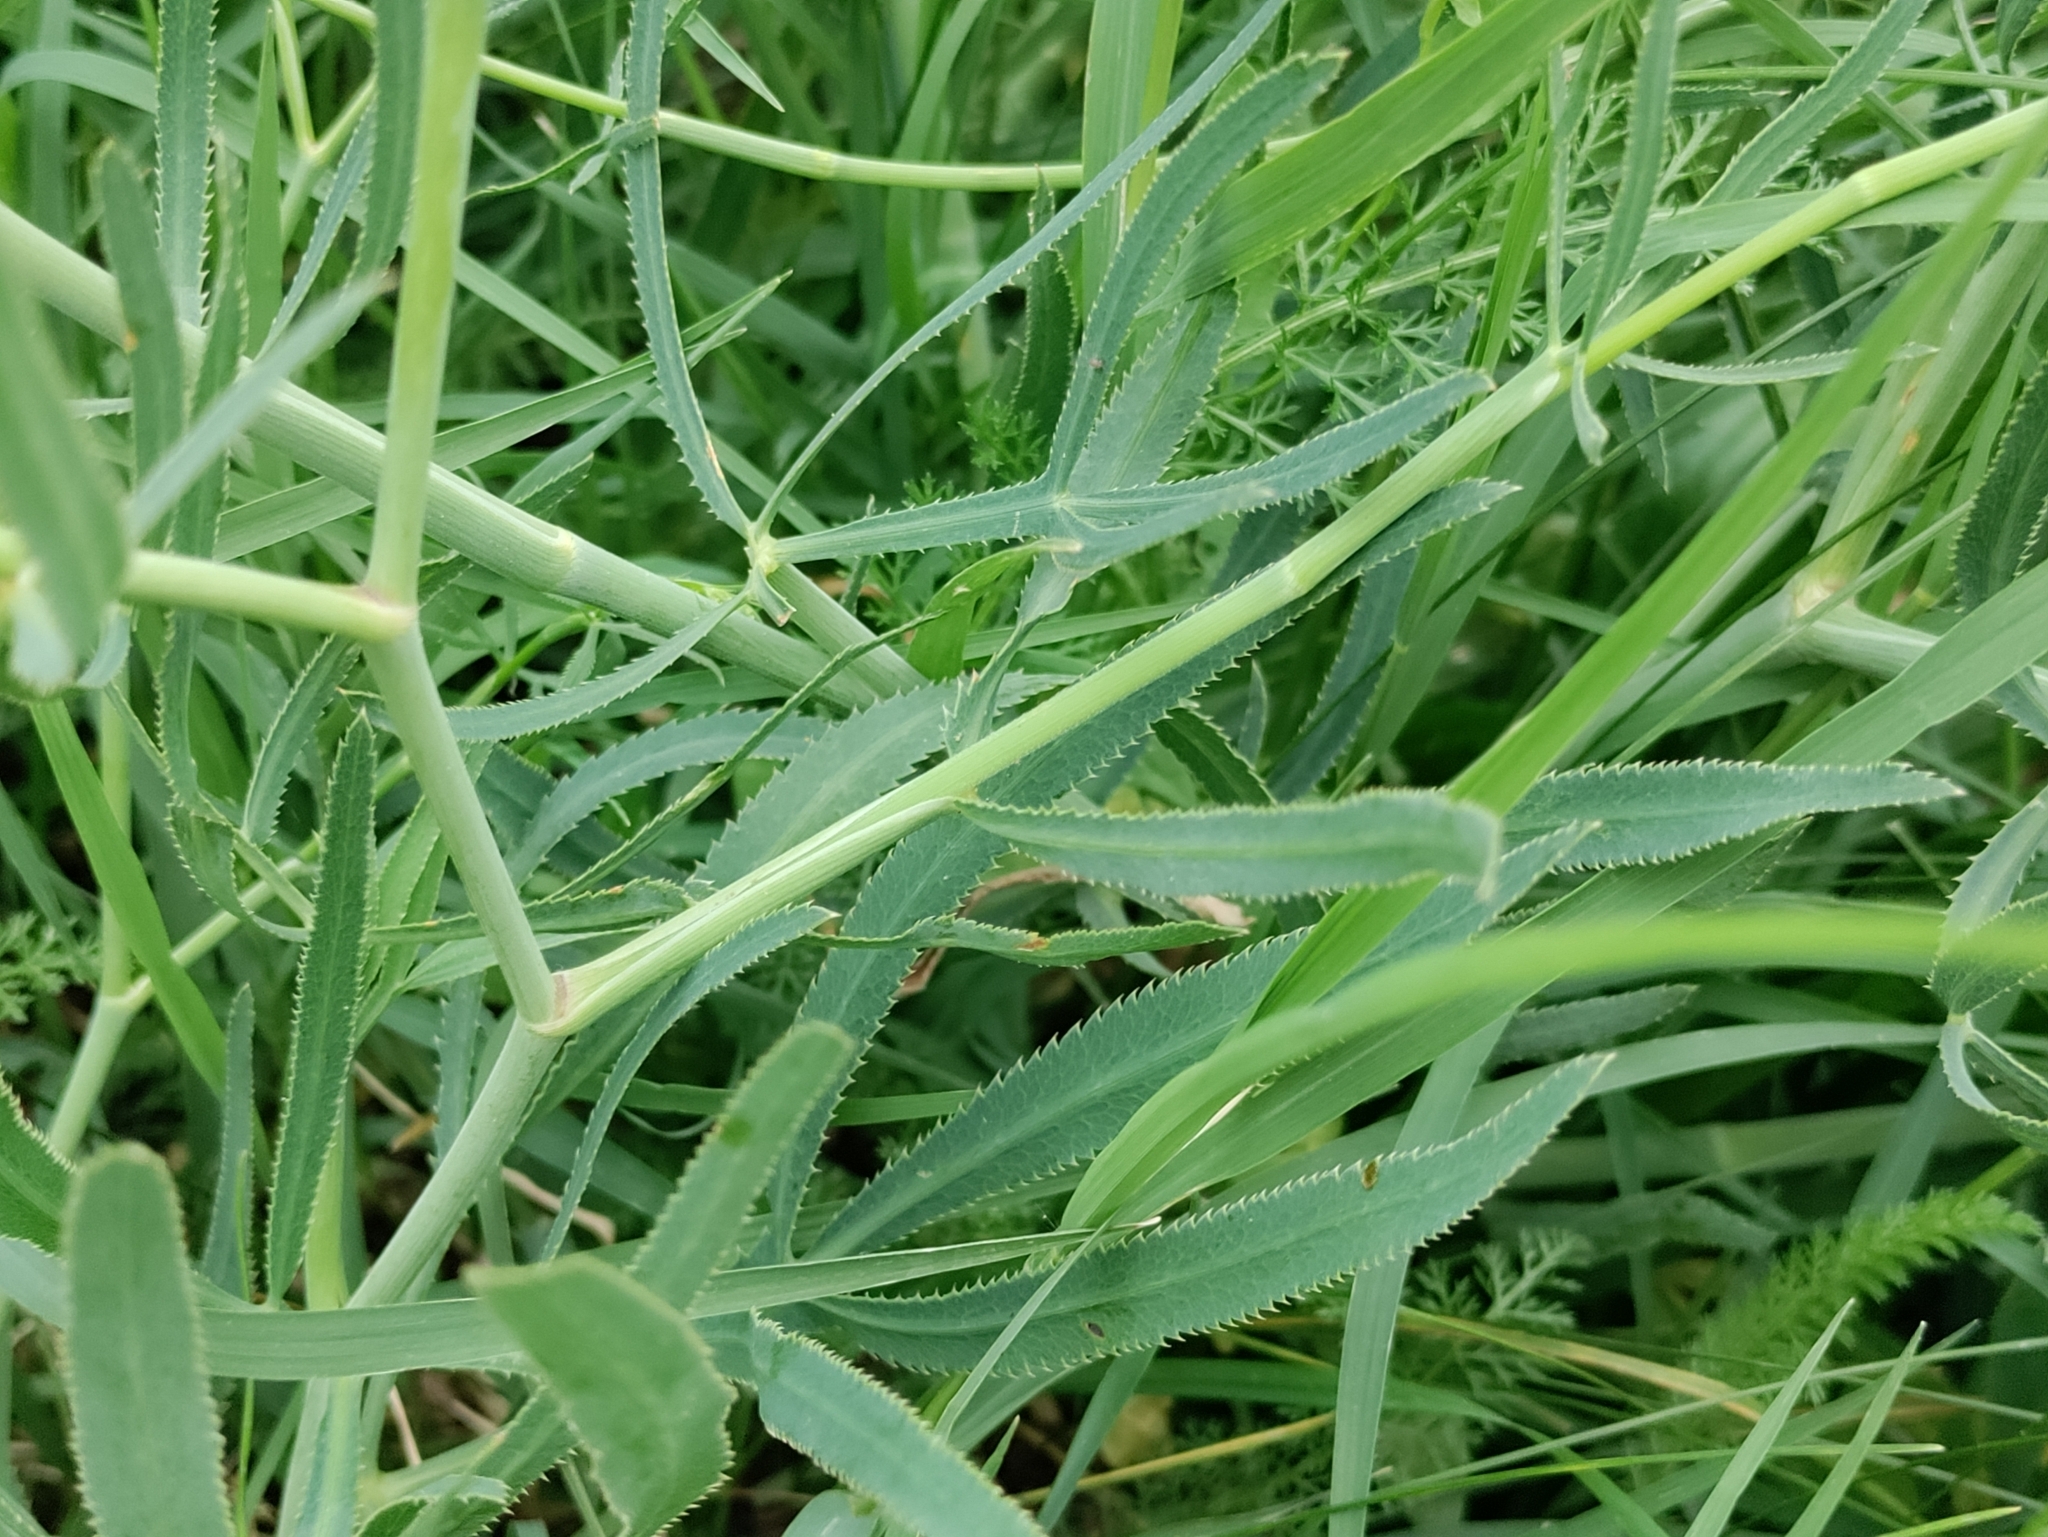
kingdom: Plantae
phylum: Tracheophyta
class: Magnoliopsida
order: Apiales
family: Apiaceae
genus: Falcaria
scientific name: Falcaria vulgaris
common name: Longleaf
